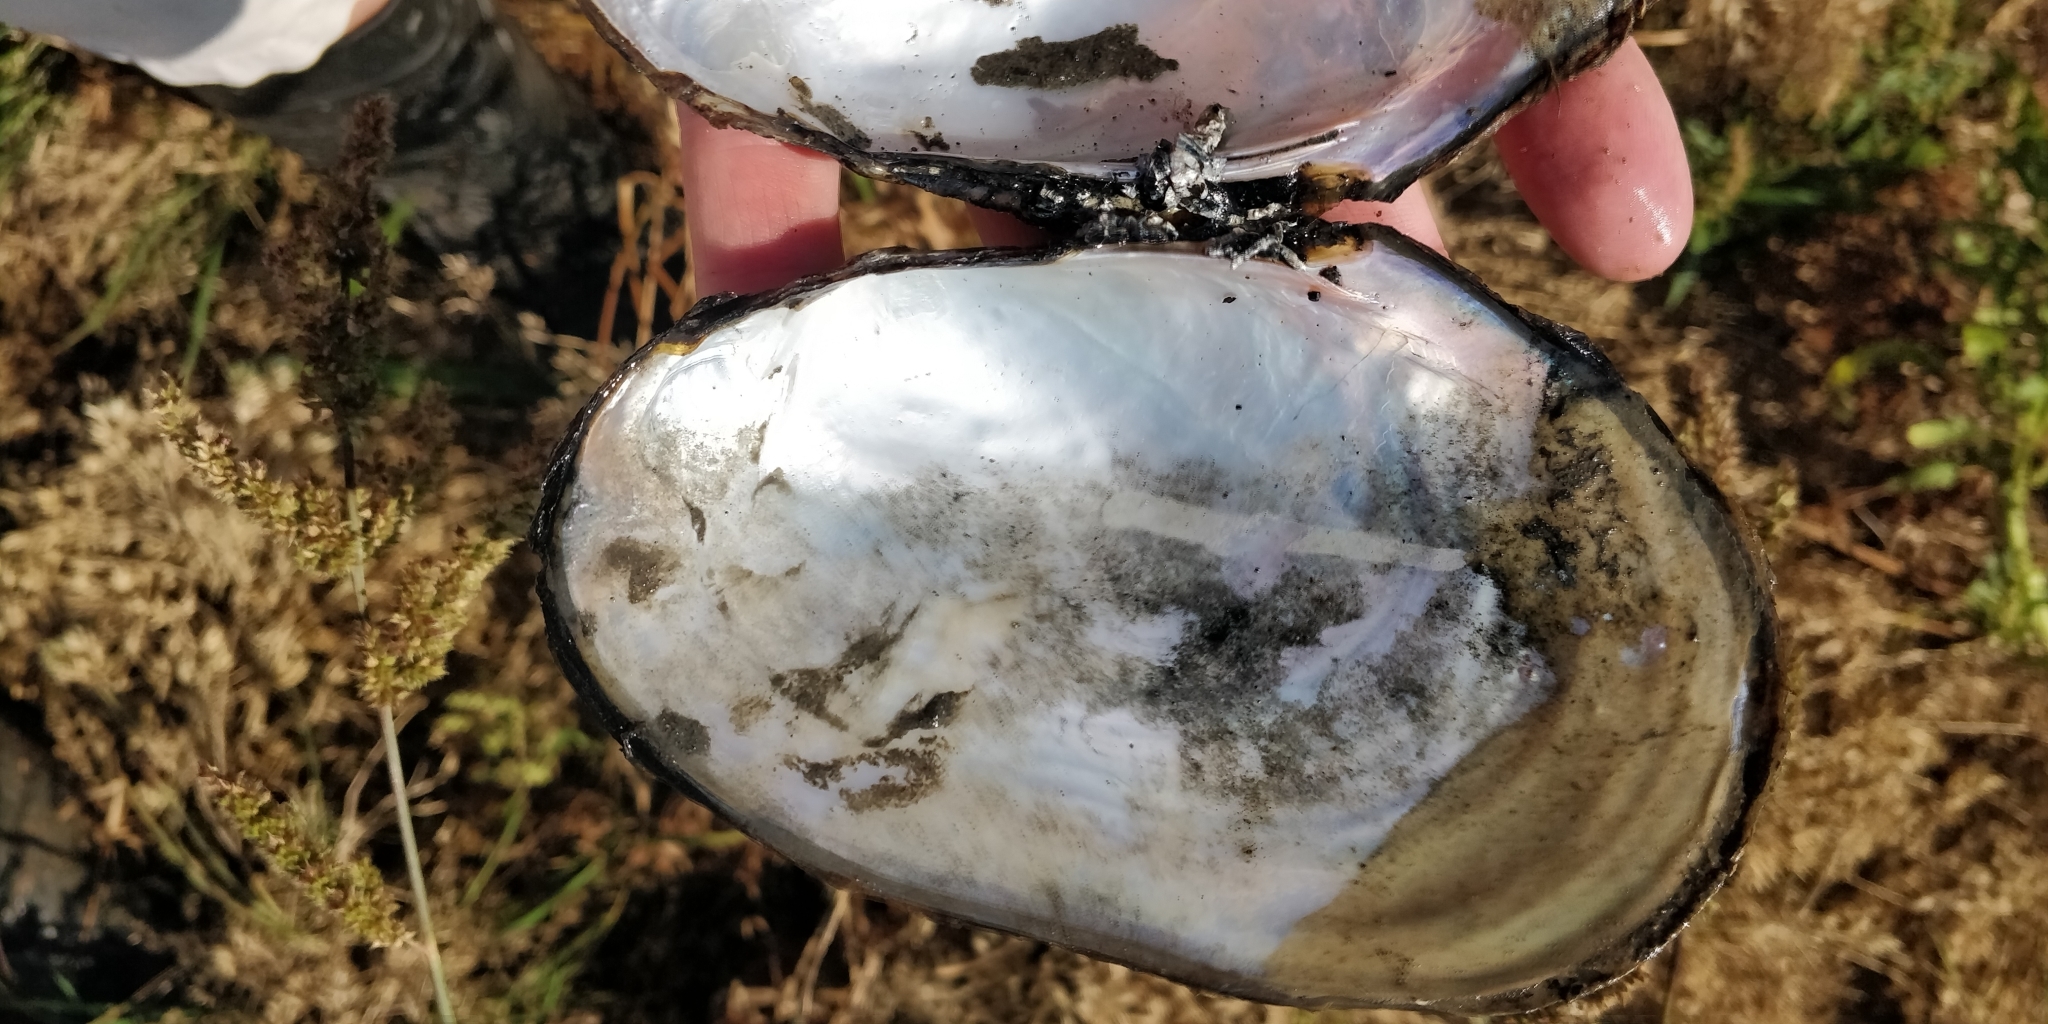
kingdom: Animalia
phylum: Mollusca
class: Bivalvia
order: Unionida
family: Unionidae
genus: Potamilus
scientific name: Potamilus fragilis
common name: Fragile papershell
